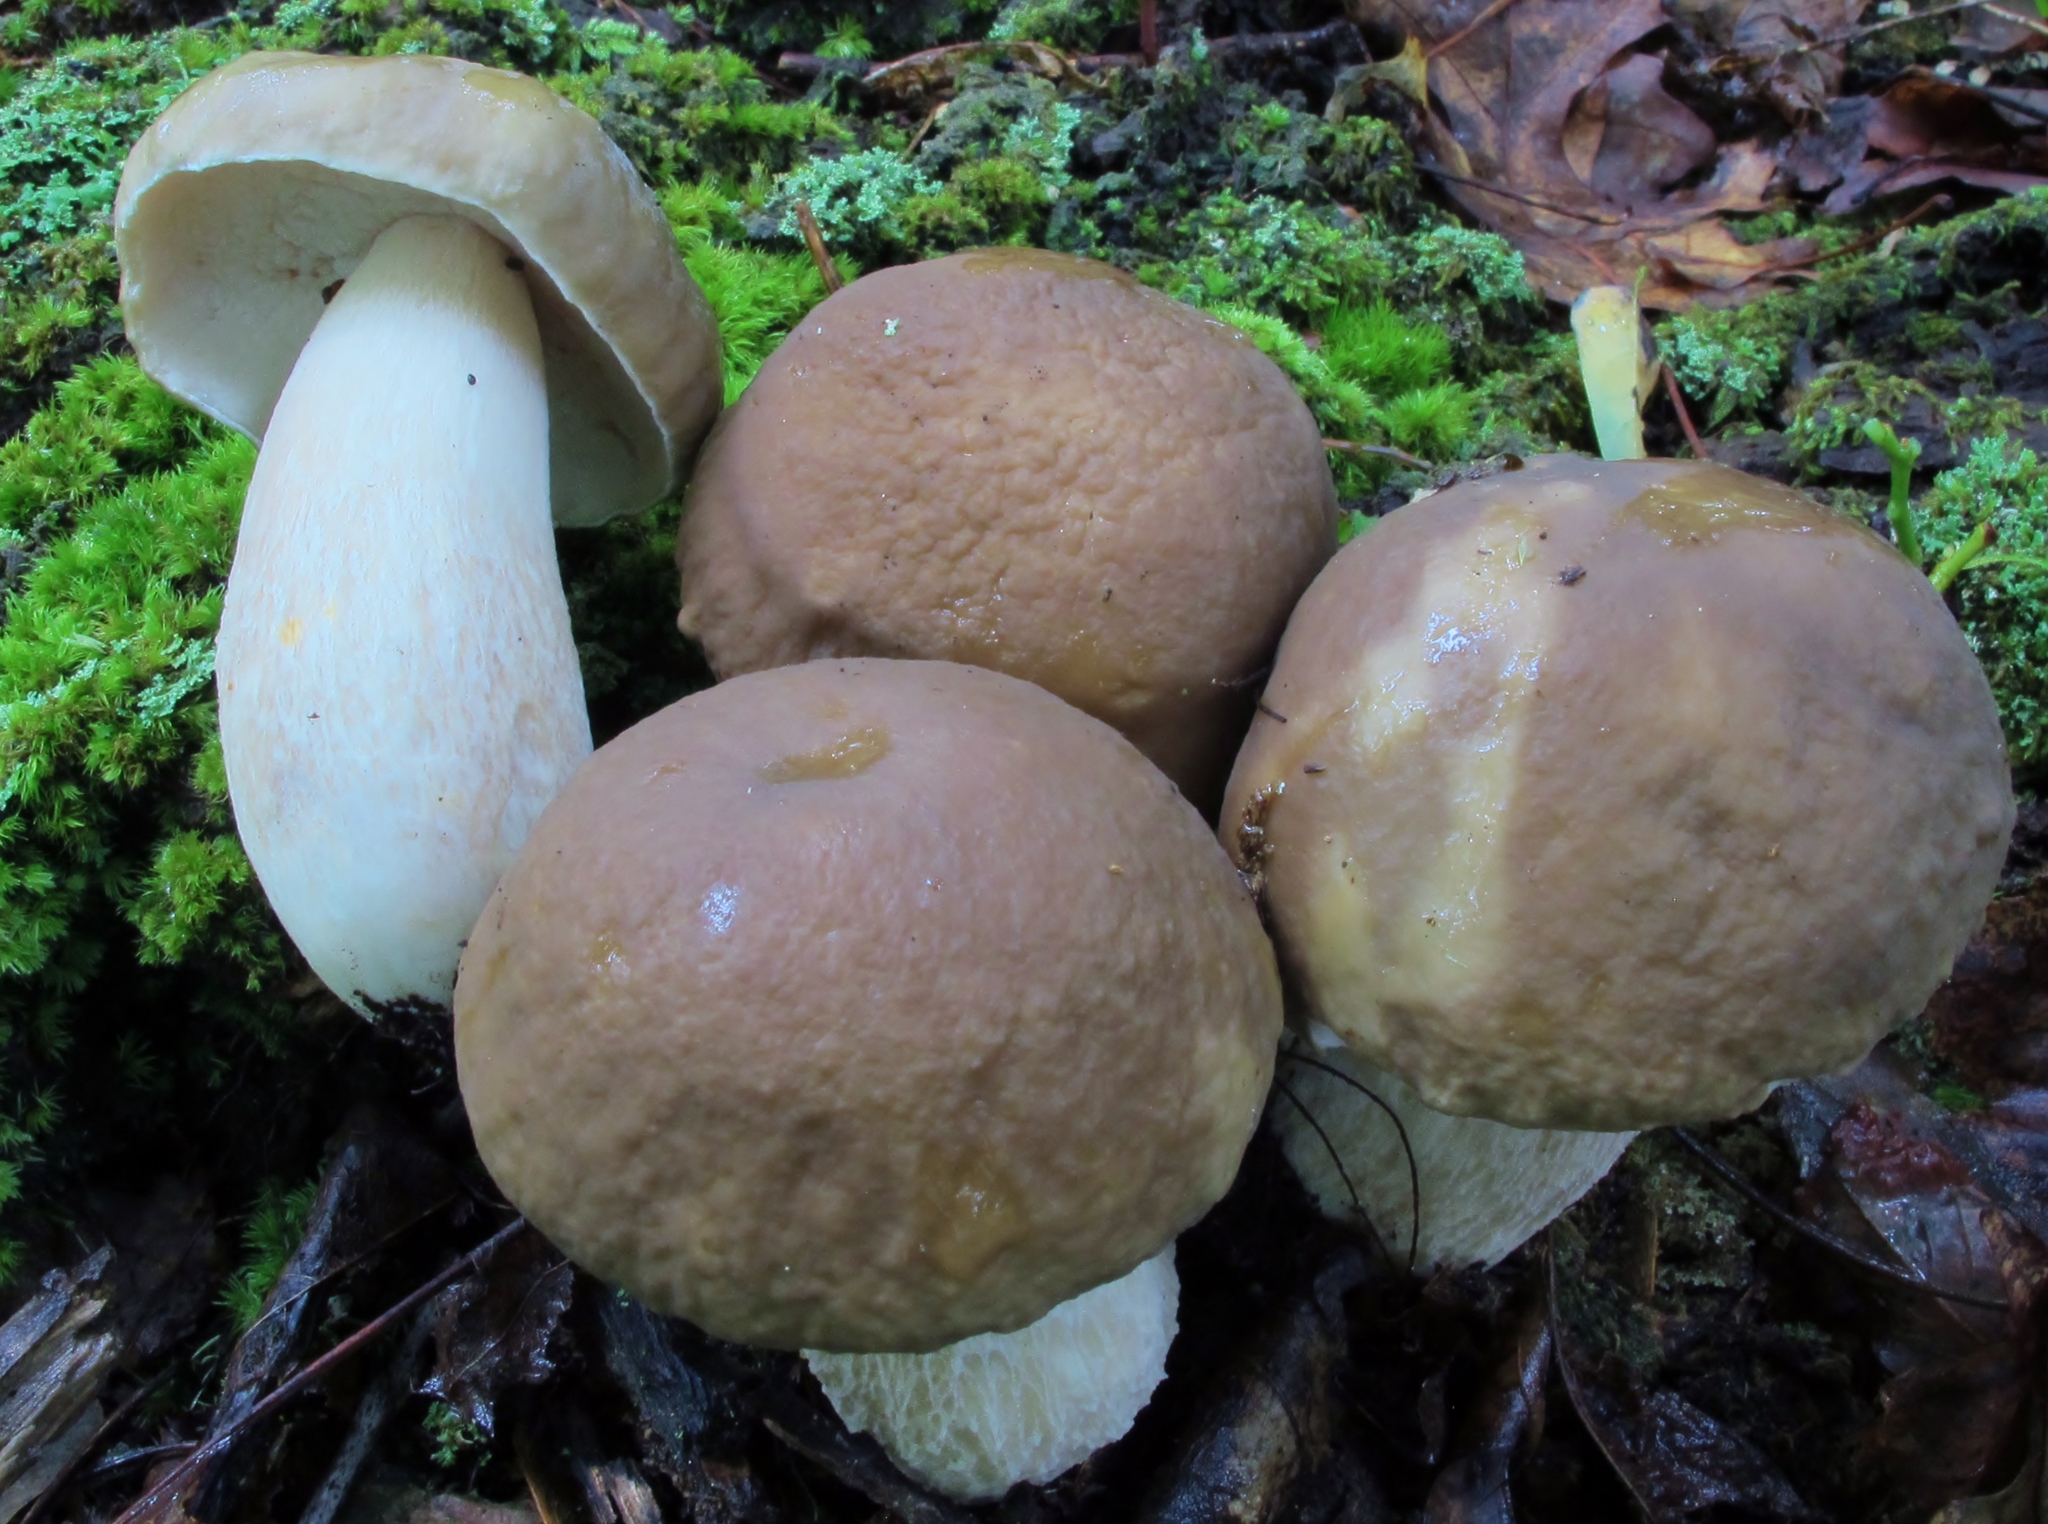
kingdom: Fungi
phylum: Basidiomycota
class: Agaricomycetes
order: Boletales
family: Boletaceae
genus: Boletus
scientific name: Boletus nobilis
